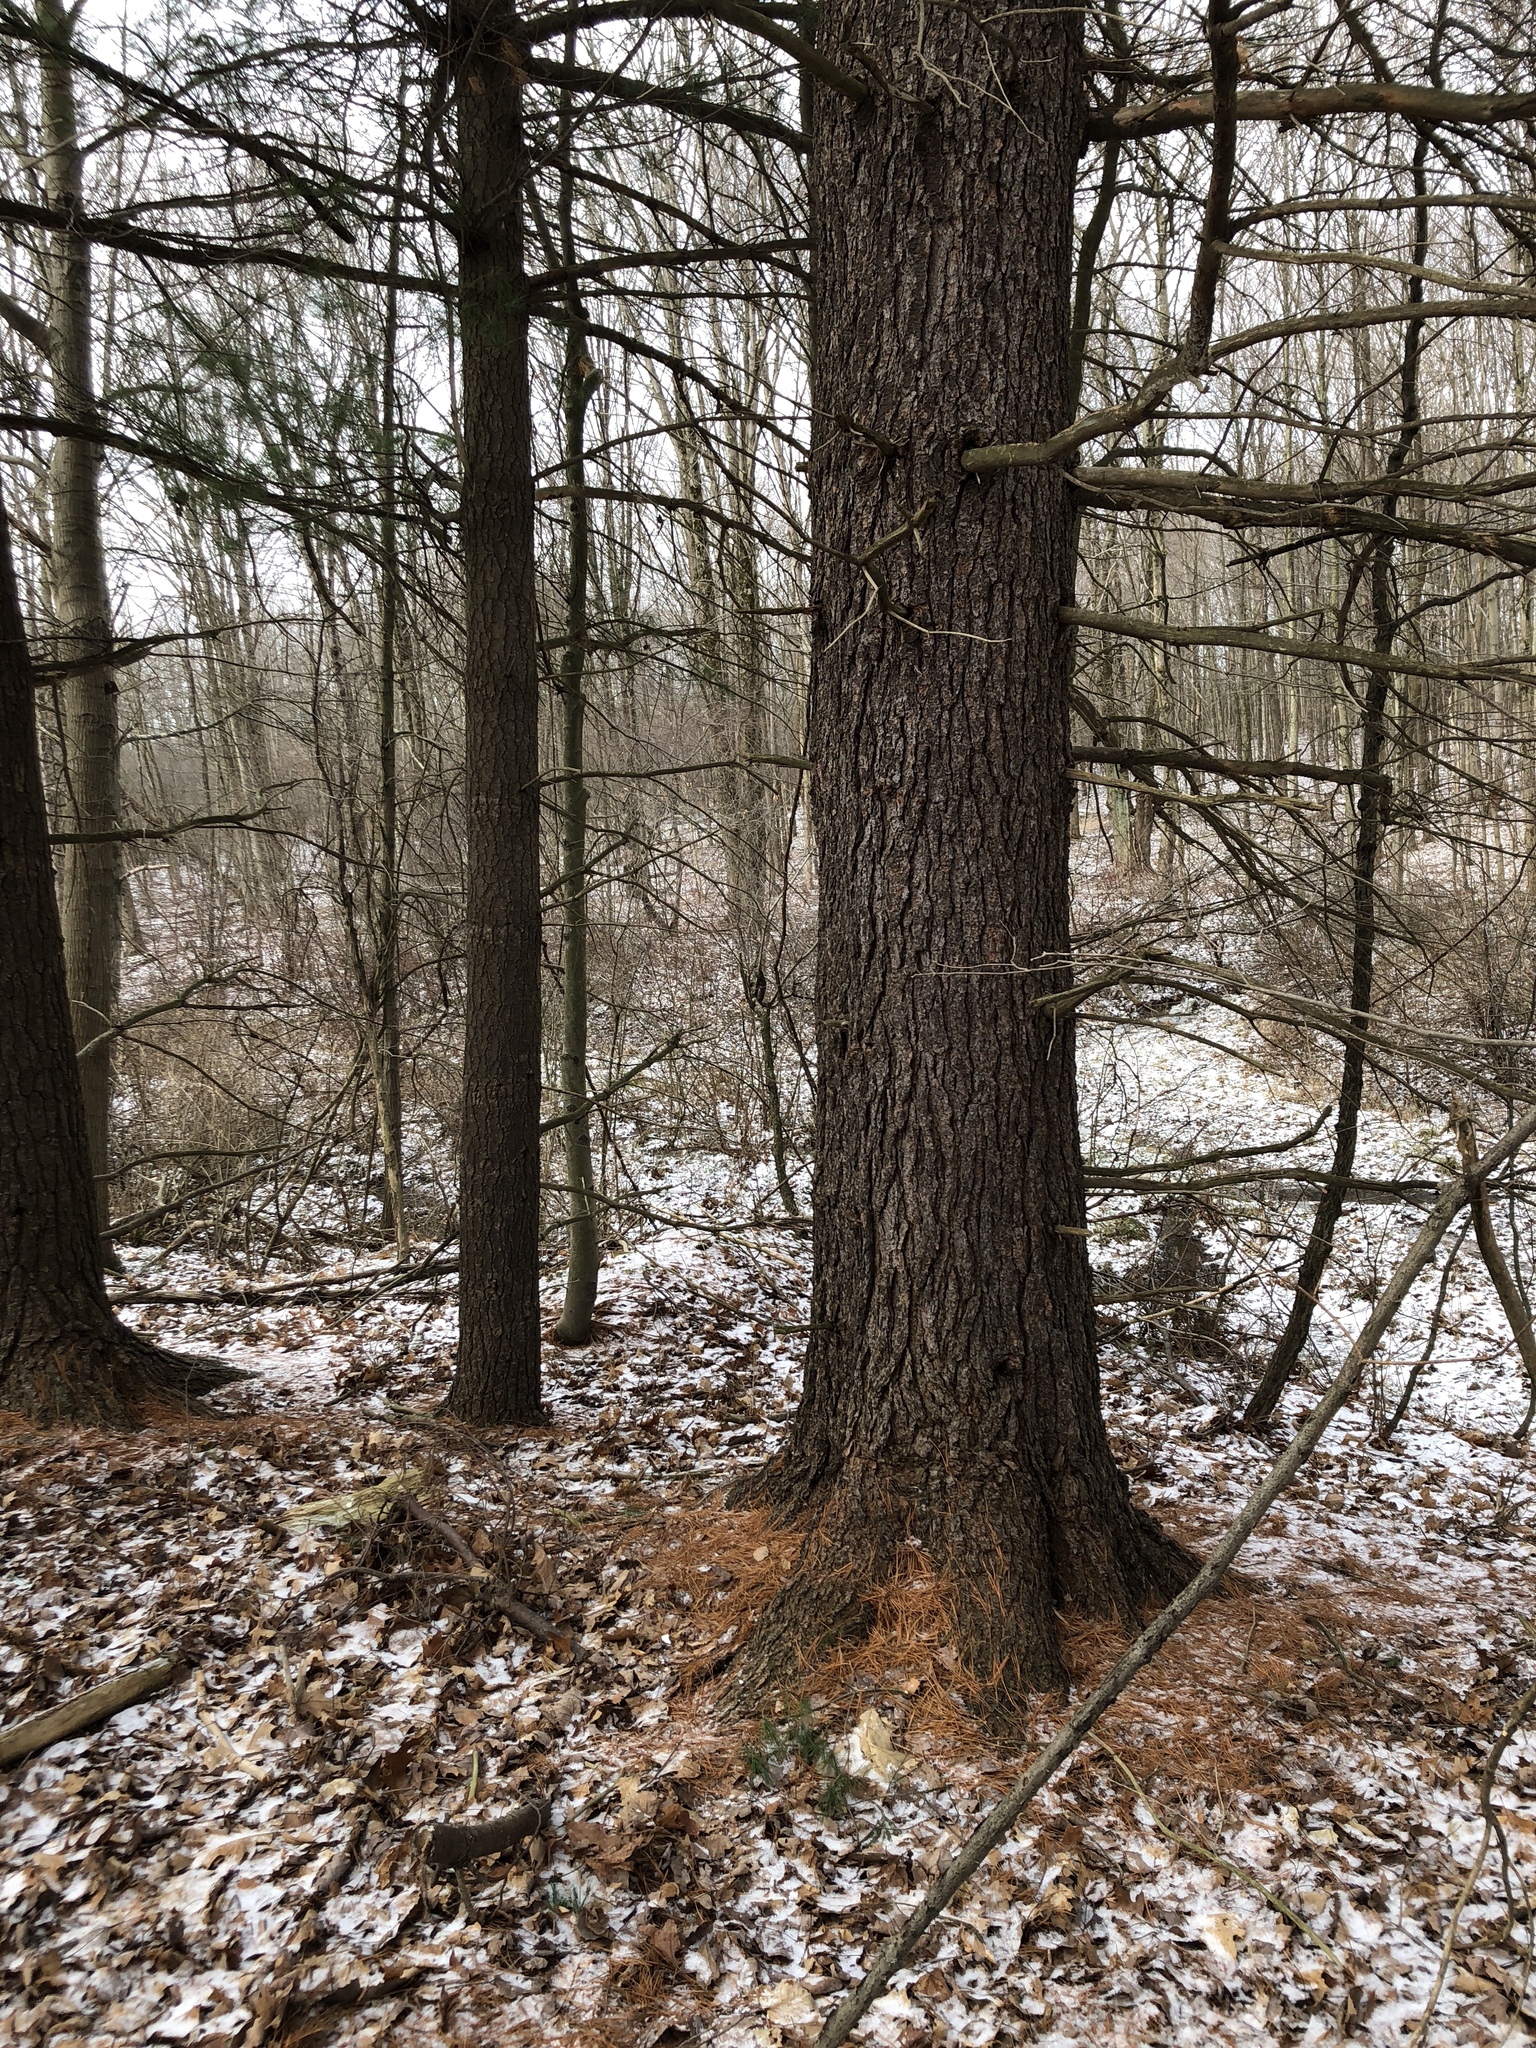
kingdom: Plantae
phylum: Tracheophyta
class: Pinopsida
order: Pinales
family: Pinaceae
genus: Pinus
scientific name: Pinus strobus
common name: Weymouth pine
